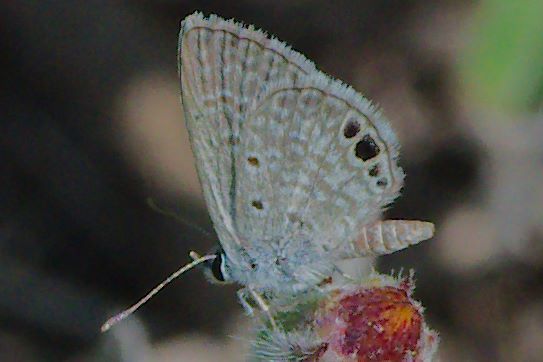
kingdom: Animalia
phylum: Arthropoda
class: Insecta
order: Lepidoptera
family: Lycaenidae
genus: Hemiargus
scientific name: Hemiargus ceraunus
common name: Ceraunus blue
